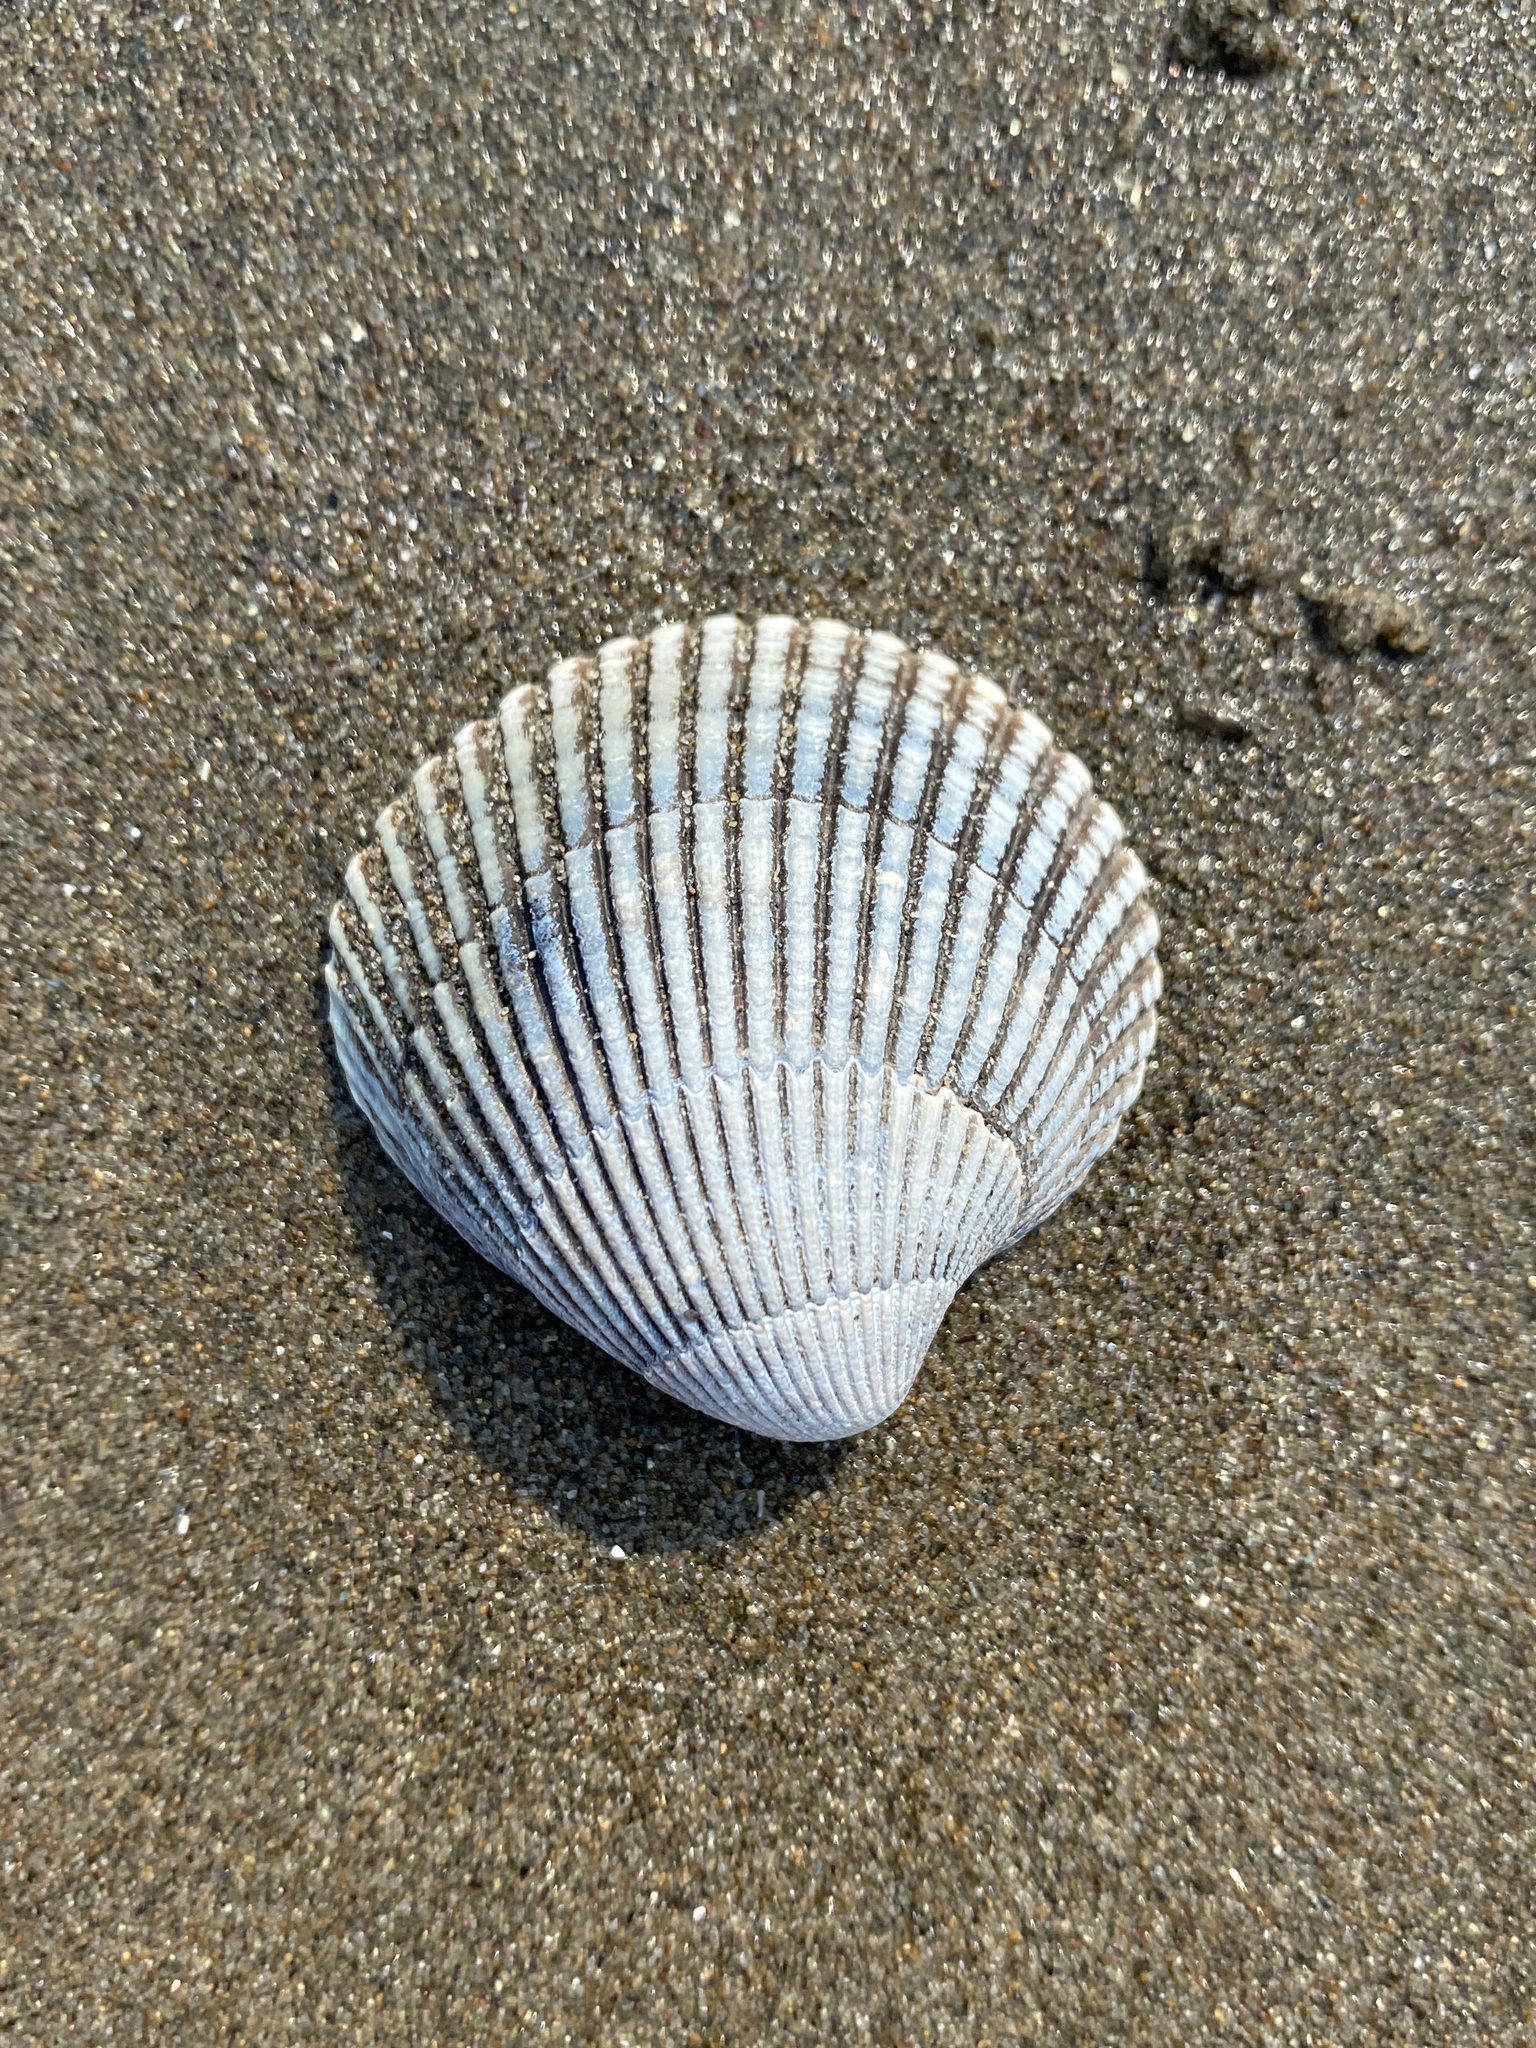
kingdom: Animalia
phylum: Mollusca
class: Bivalvia
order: Cardiida
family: Cardiidae
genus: Clinocardium
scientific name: Clinocardium nuttallii
